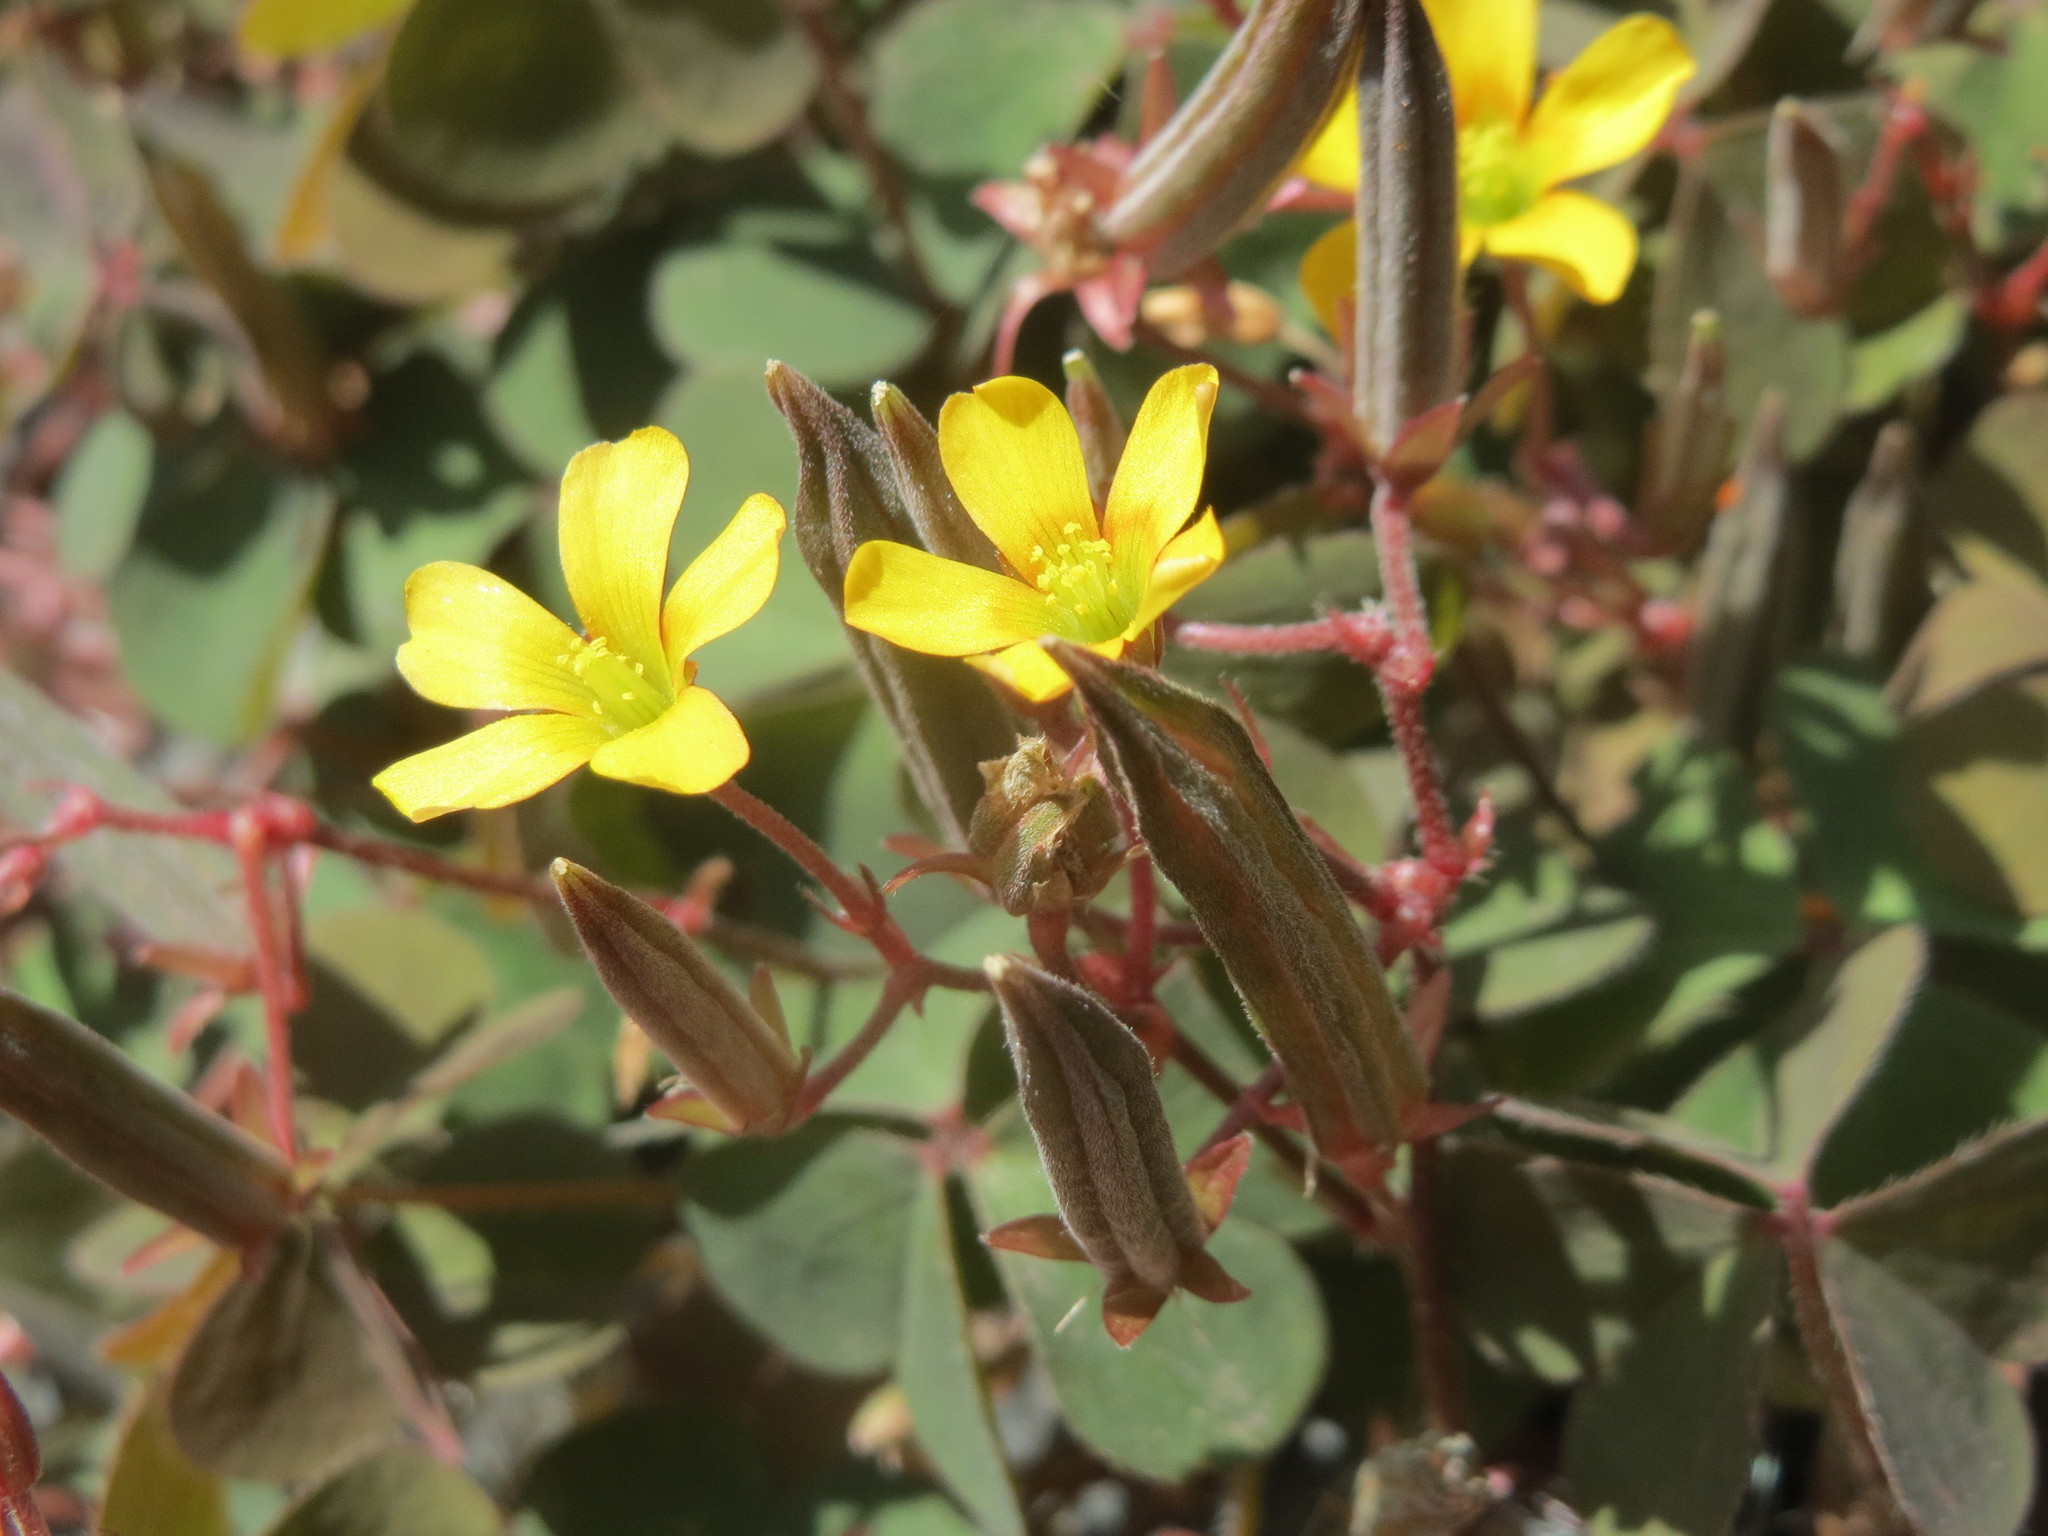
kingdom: Plantae
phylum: Tracheophyta
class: Magnoliopsida
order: Oxalidales
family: Oxalidaceae
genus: Oxalis
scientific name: Oxalis corniculata
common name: Procumbent yellow-sorrel
